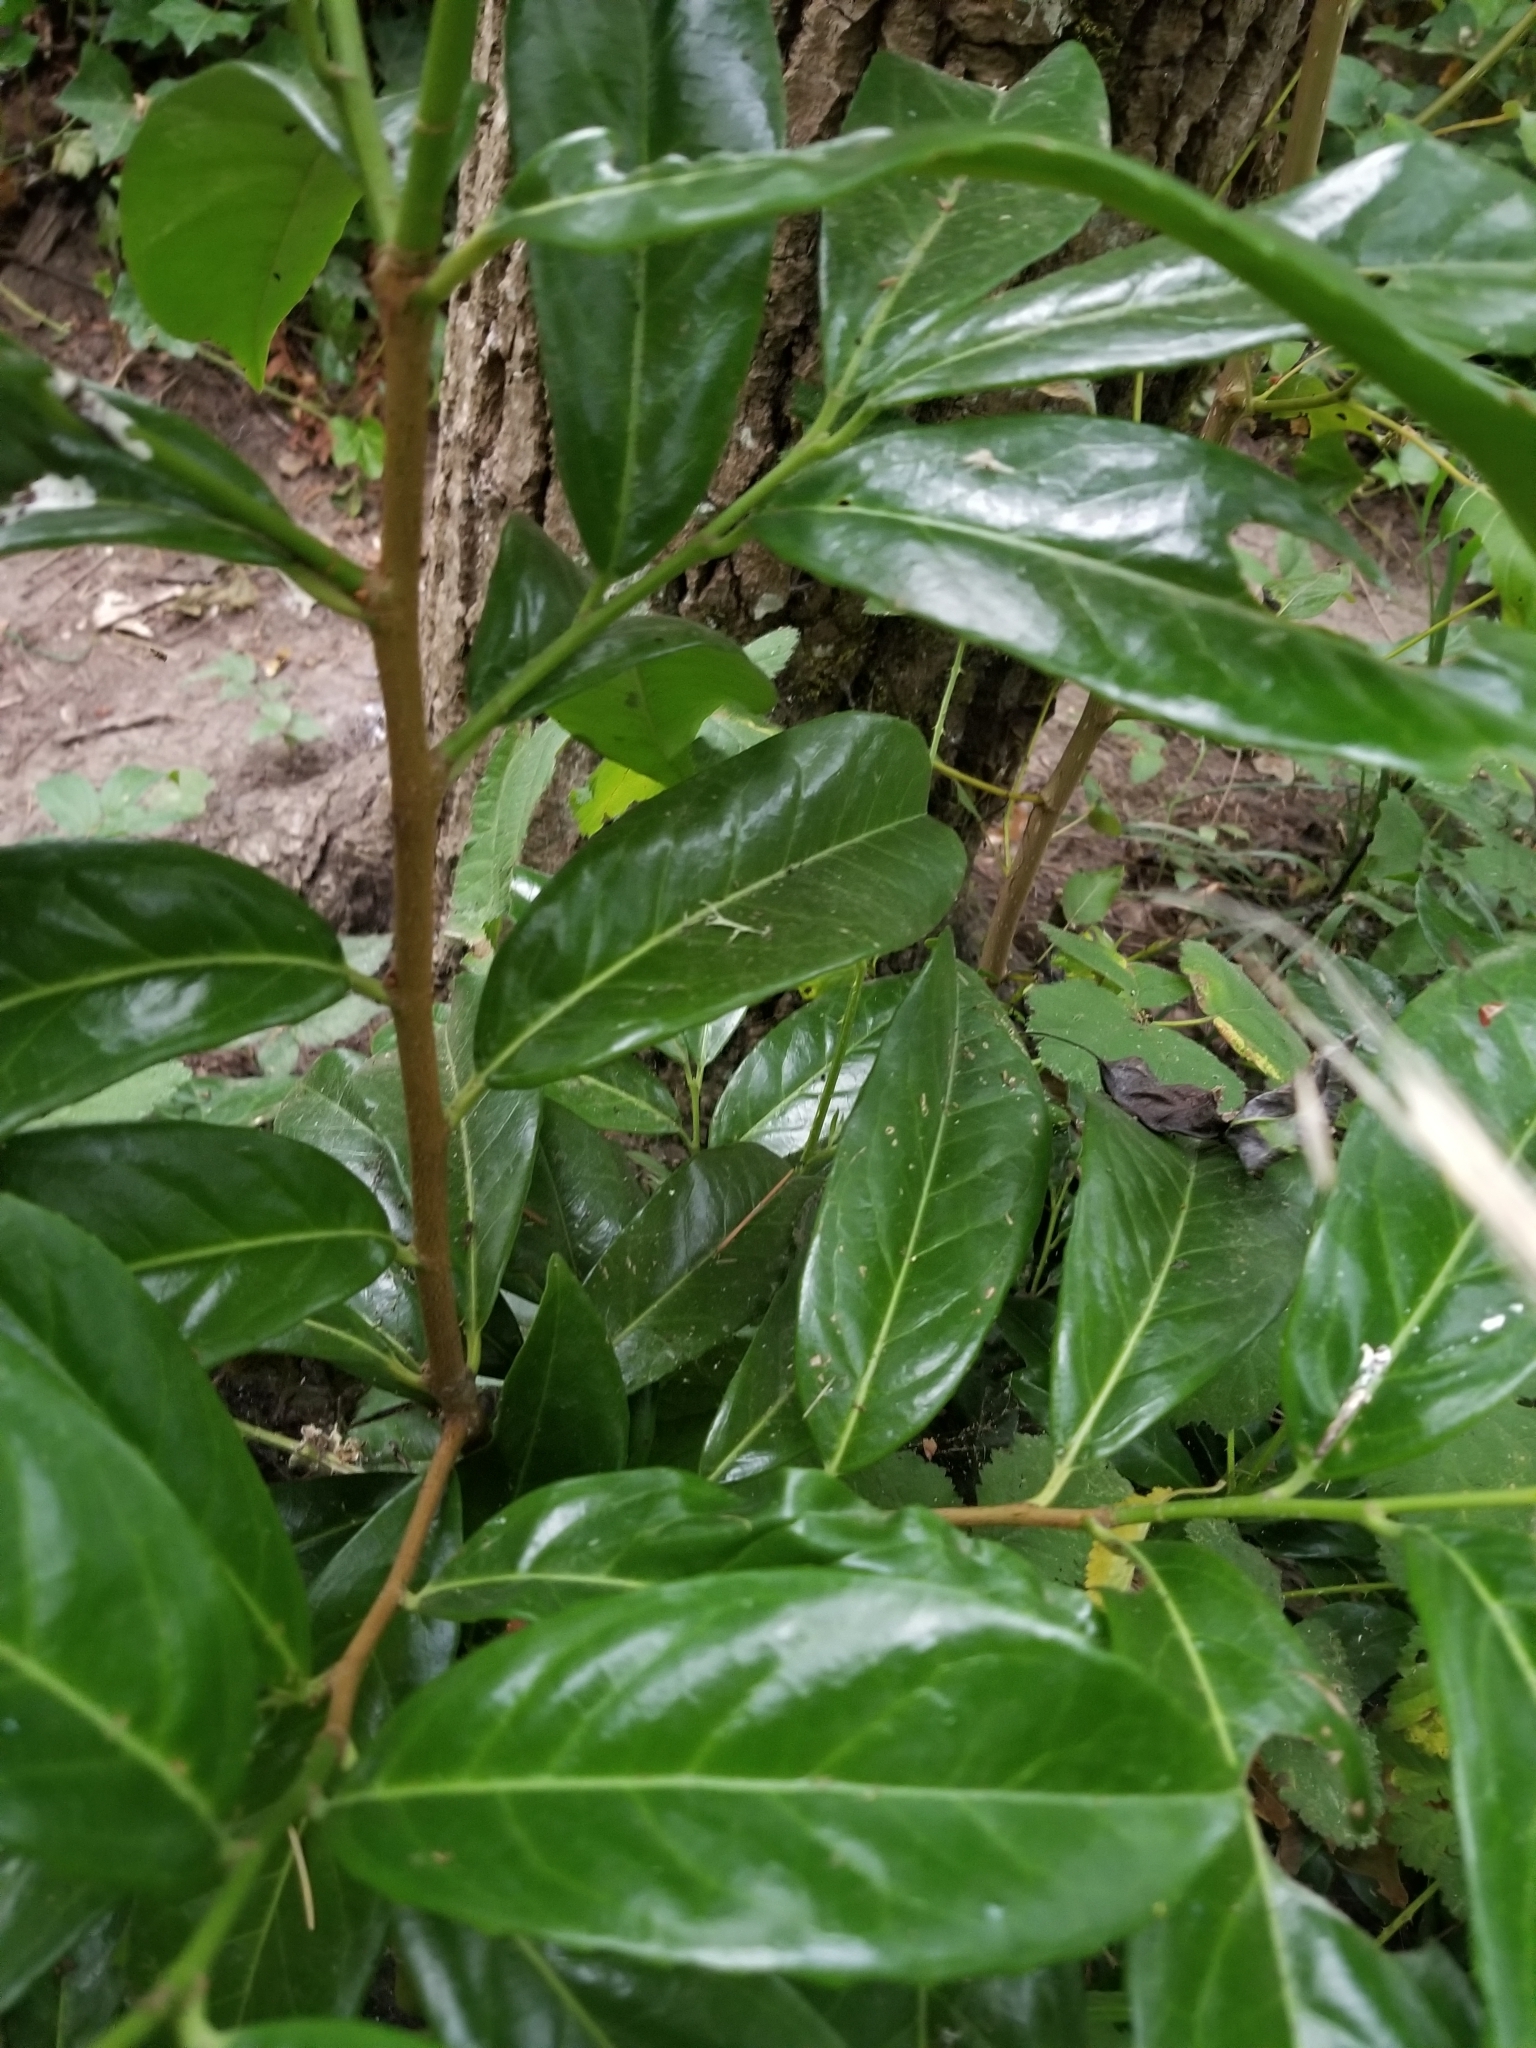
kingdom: Plantae
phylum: Tracheophyta
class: Magnoliopsida
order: Rosales
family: Rosaceae
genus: Prunus
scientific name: Prunus laurocerasus
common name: Cherry laurel
